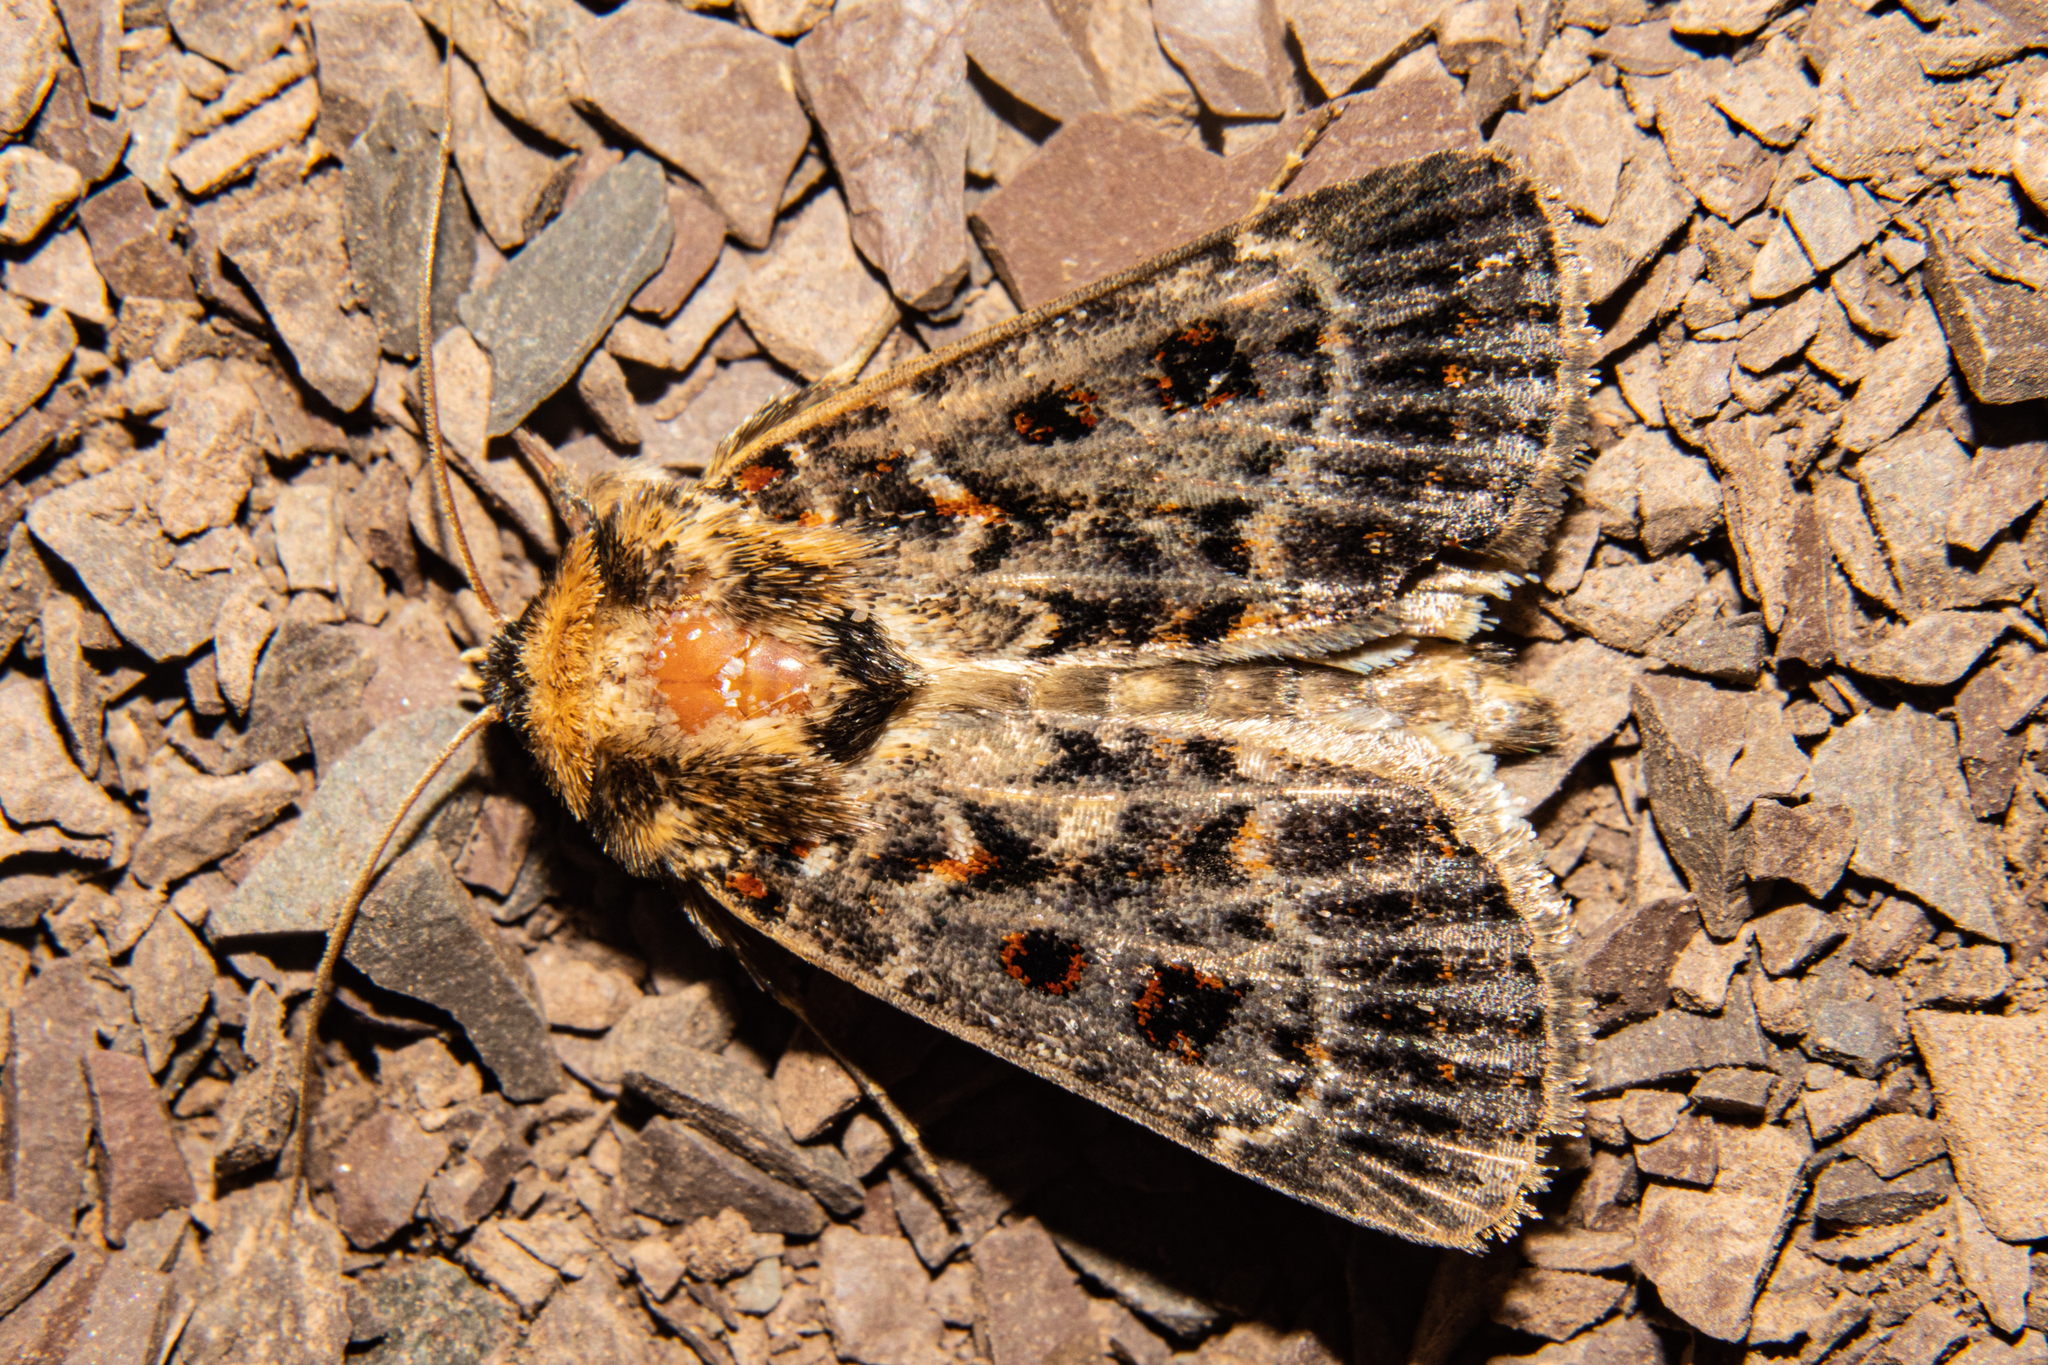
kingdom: Animalia
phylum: Arthropoda
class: Insecta
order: Lepidoptera
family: Noctuidae
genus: Proteuxoa
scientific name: Proteuxoa sanguinipuncta
